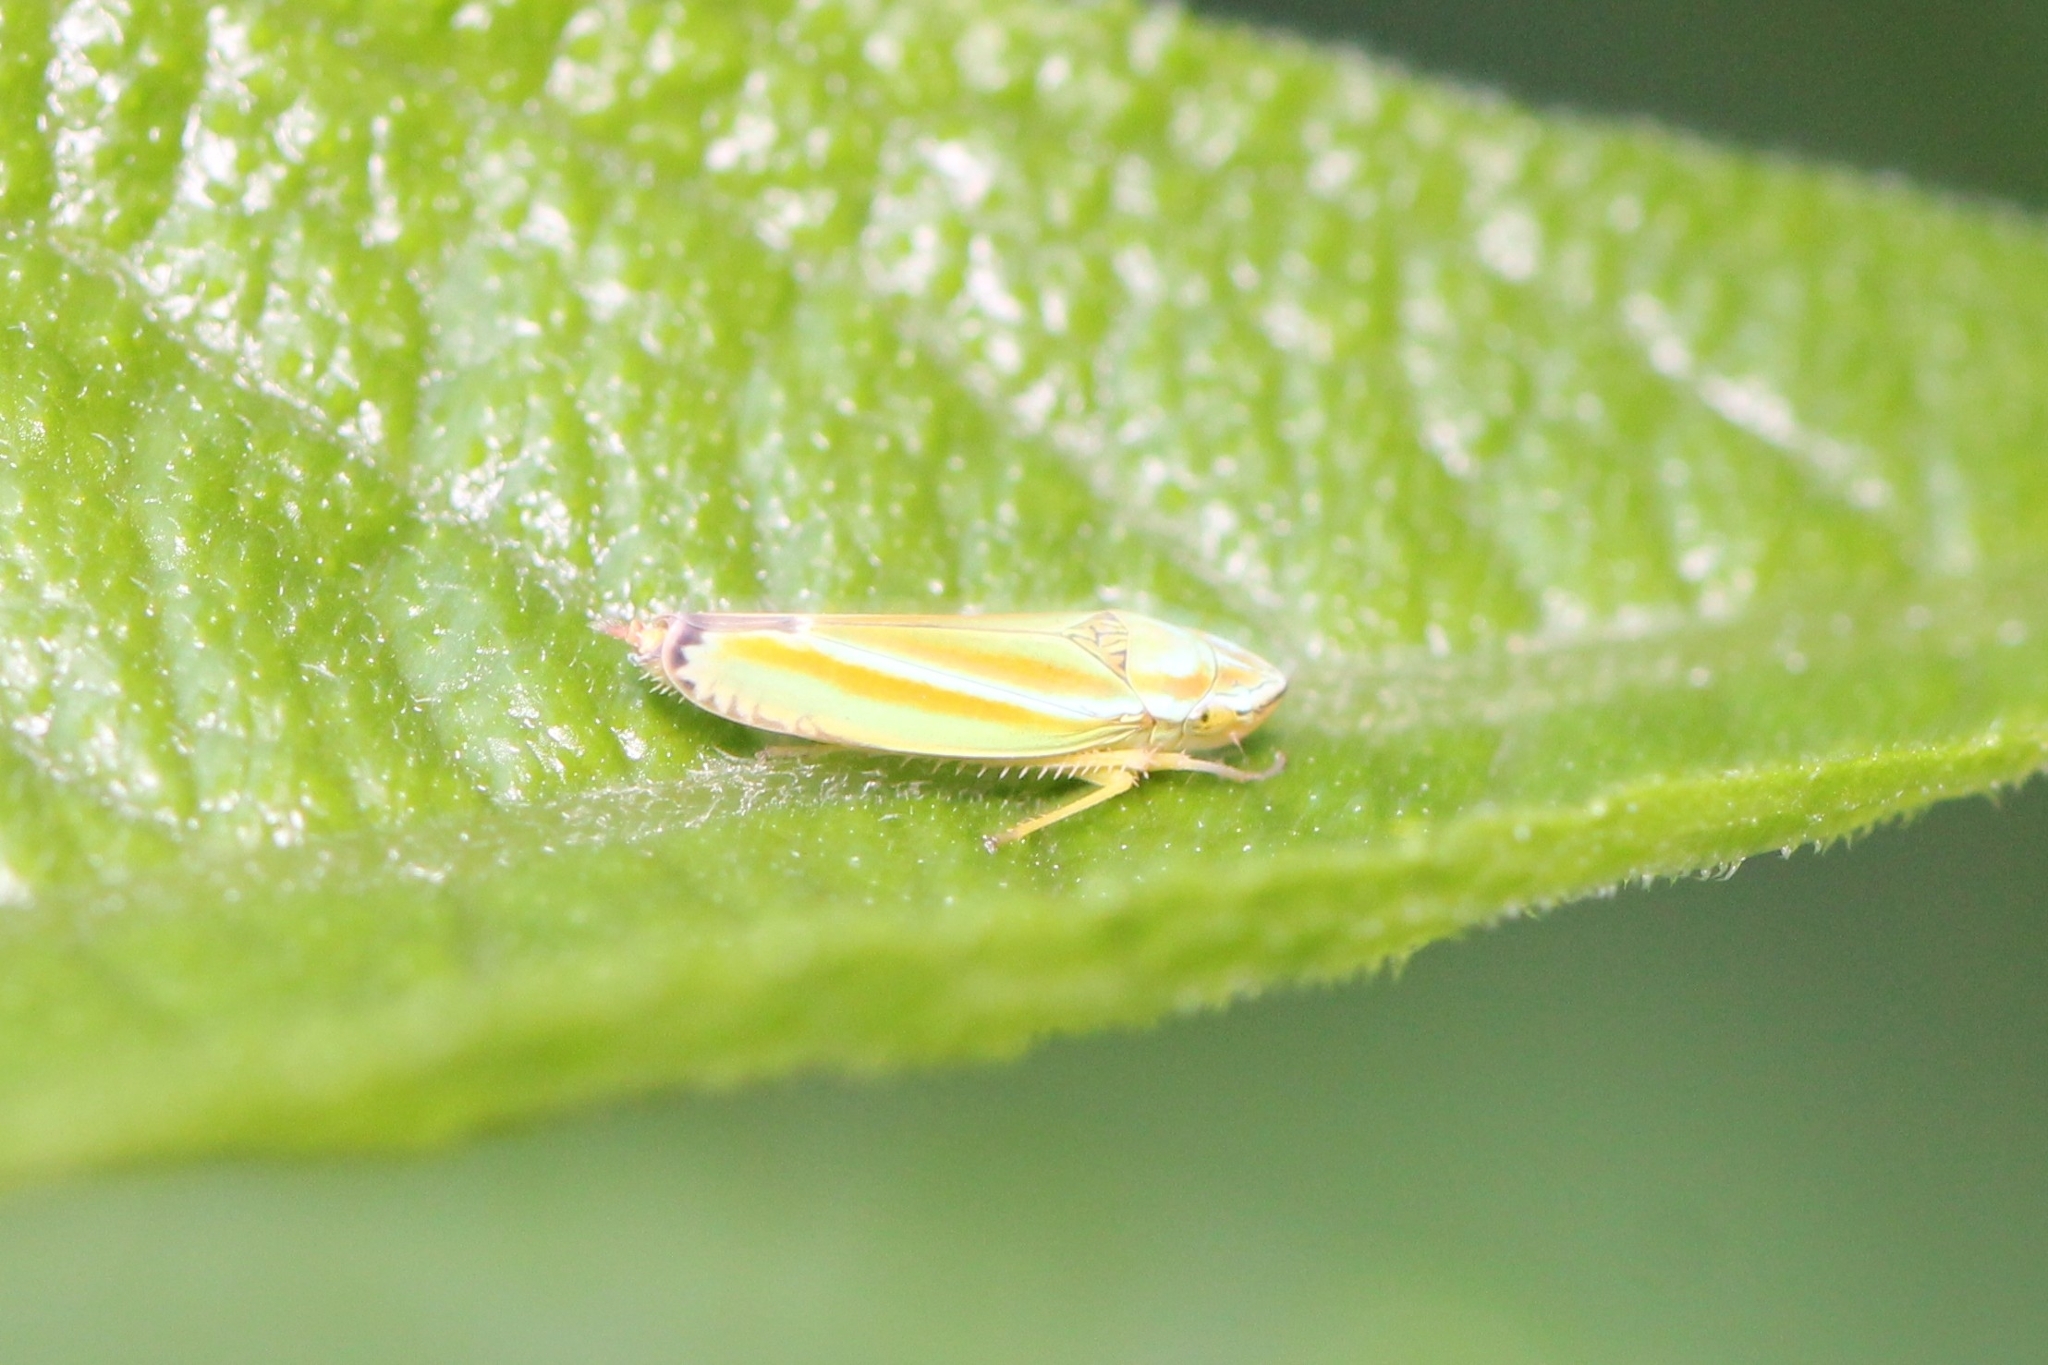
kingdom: Animalia
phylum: Arthropoda
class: Insecta
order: Hemiptera
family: Cicadellidae
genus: Graphocephala
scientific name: Graphocephala versuta
